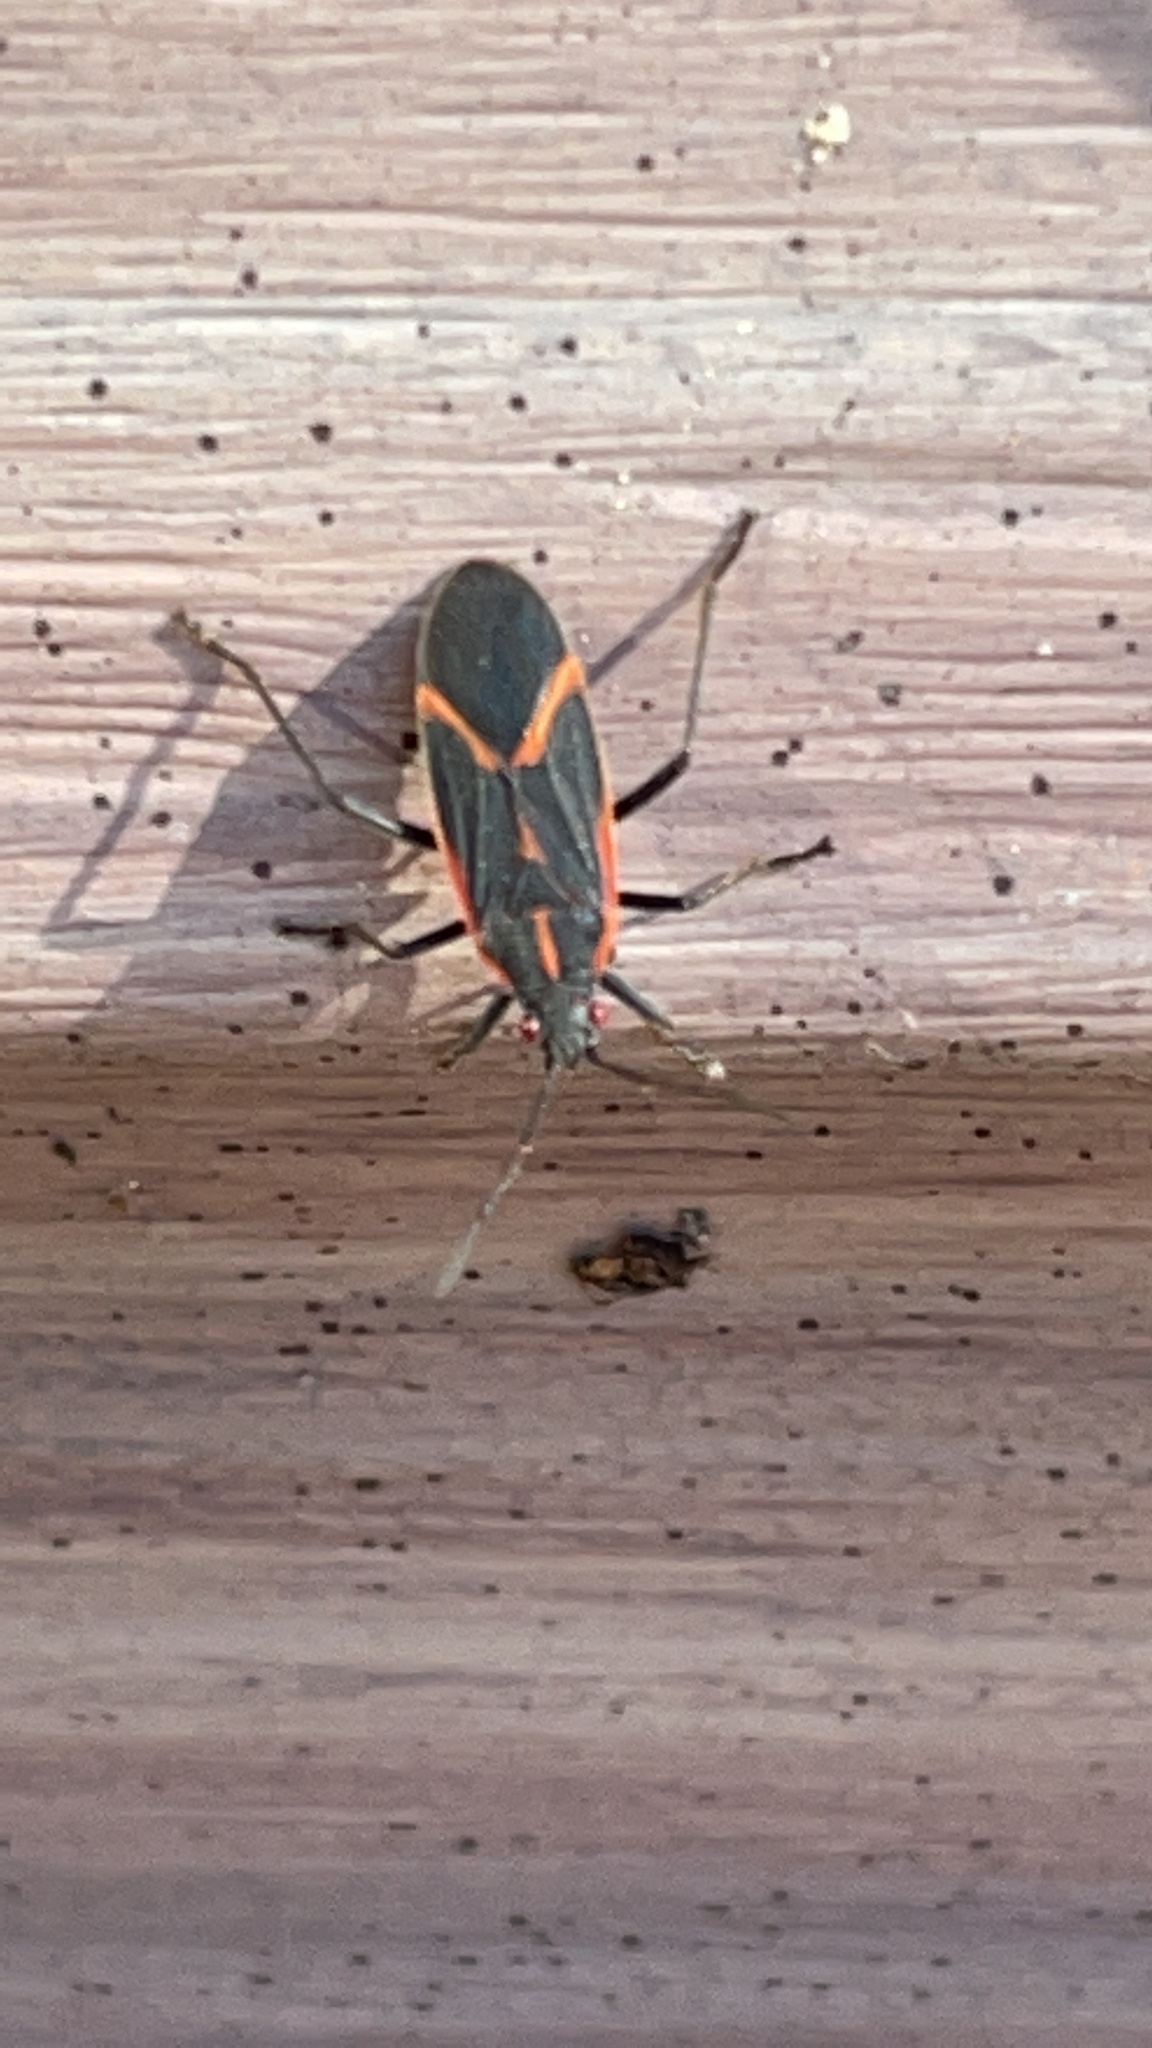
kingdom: Animalia
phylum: Arthropoda
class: Insecta
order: Hemiptera
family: Rhopalidae
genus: Boisea
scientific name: Boisea trivittata
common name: Boxelder bug
